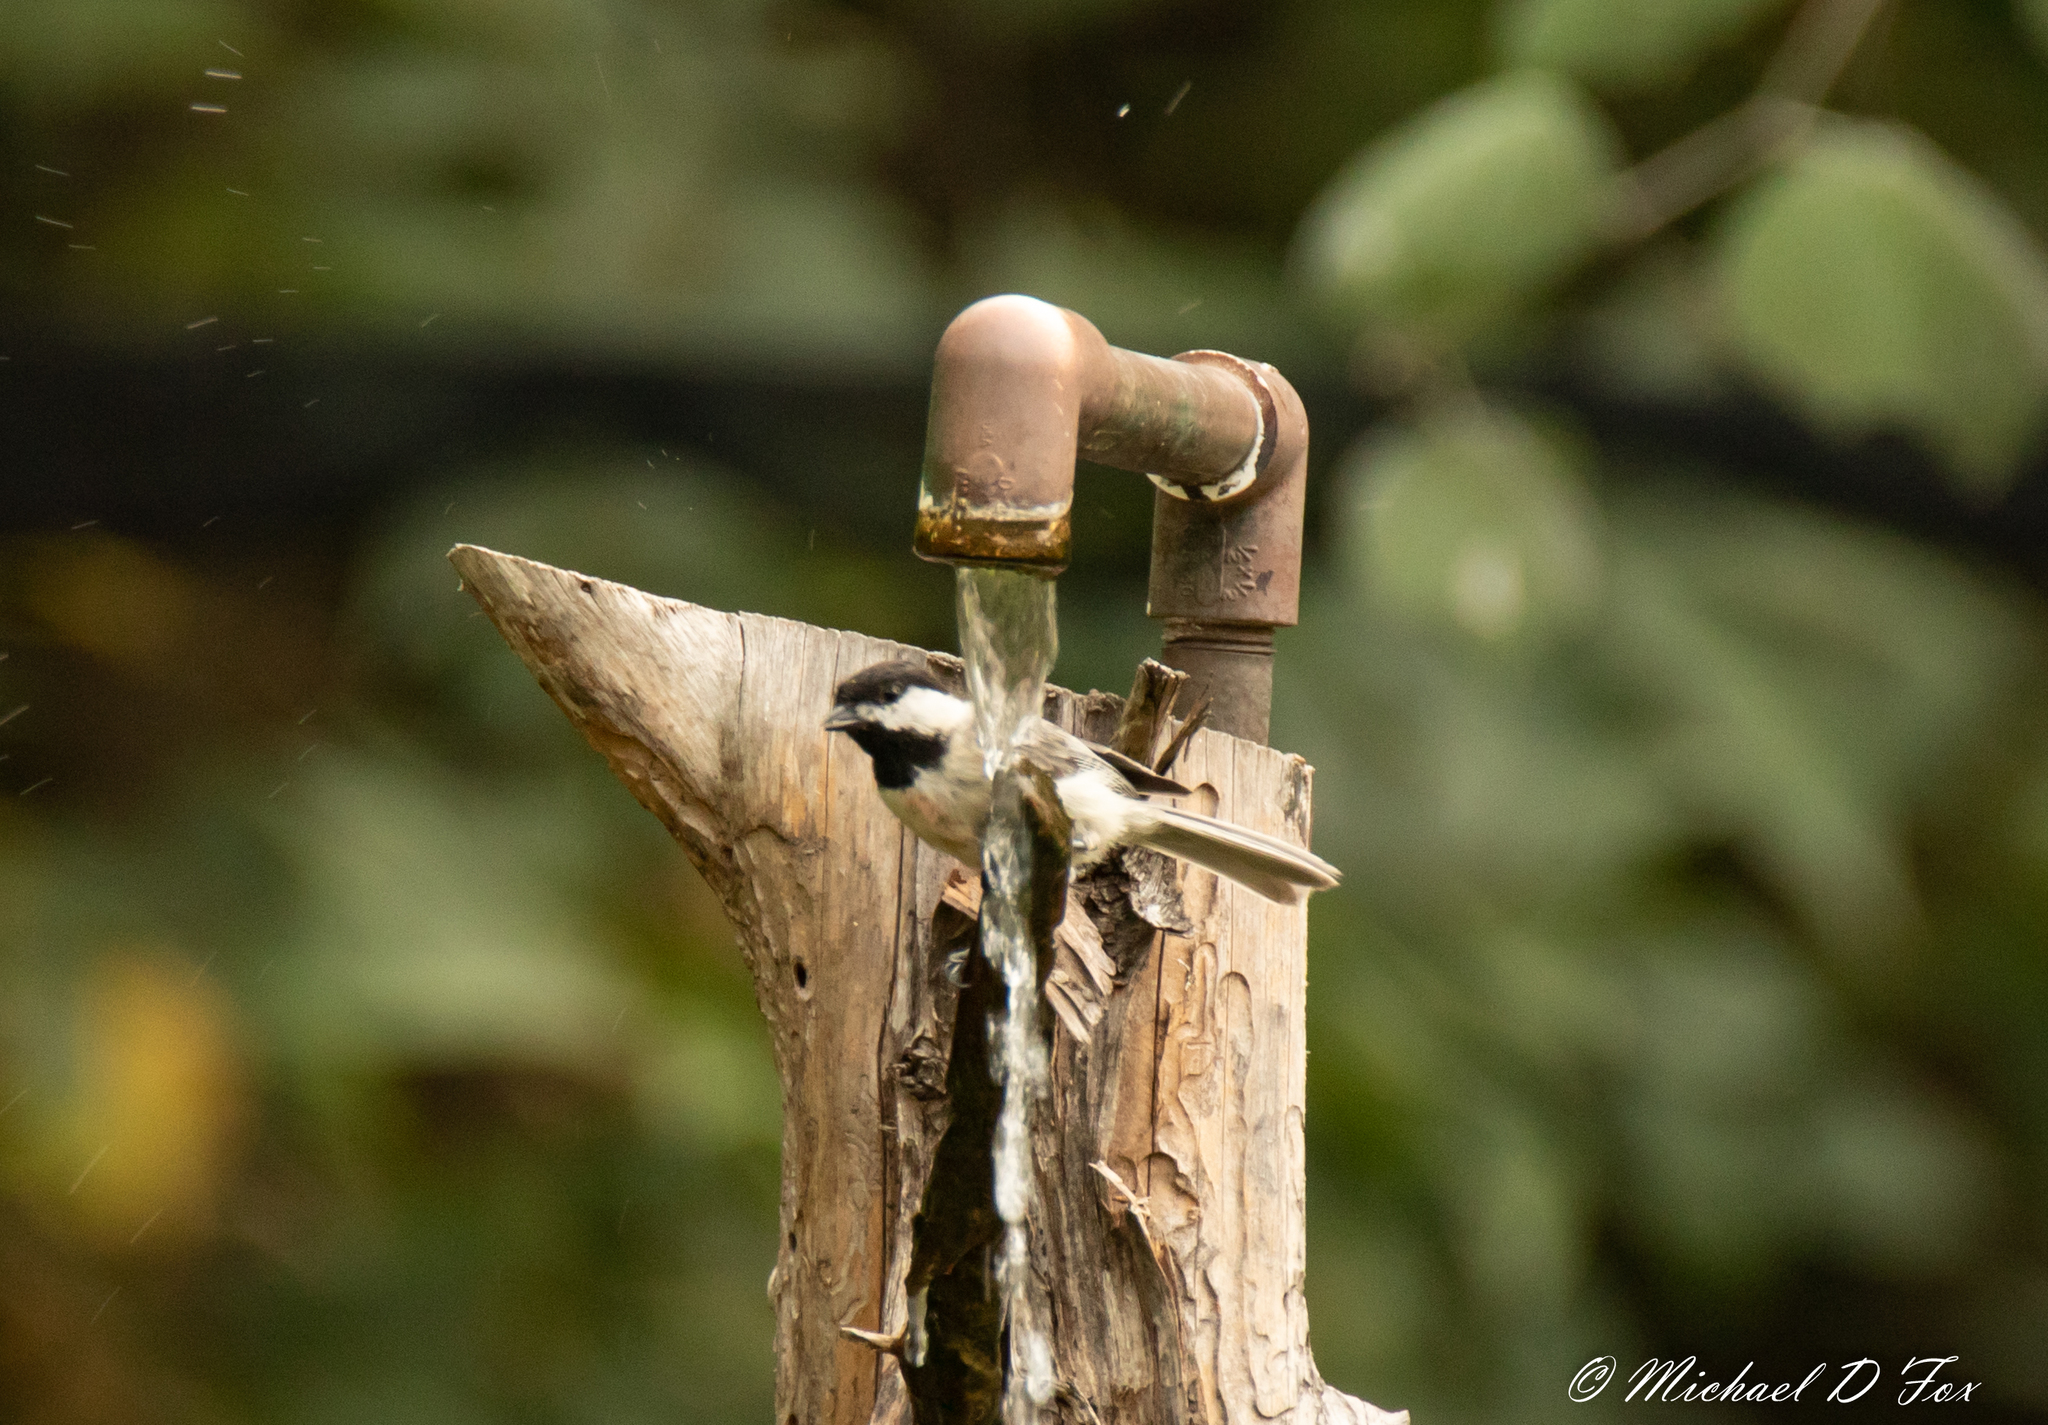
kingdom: Animalia
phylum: Chordata
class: Aves
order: Passeriformes
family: Paridae
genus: Poecile
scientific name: Poecile carolinensis
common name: Carolina chickadee
